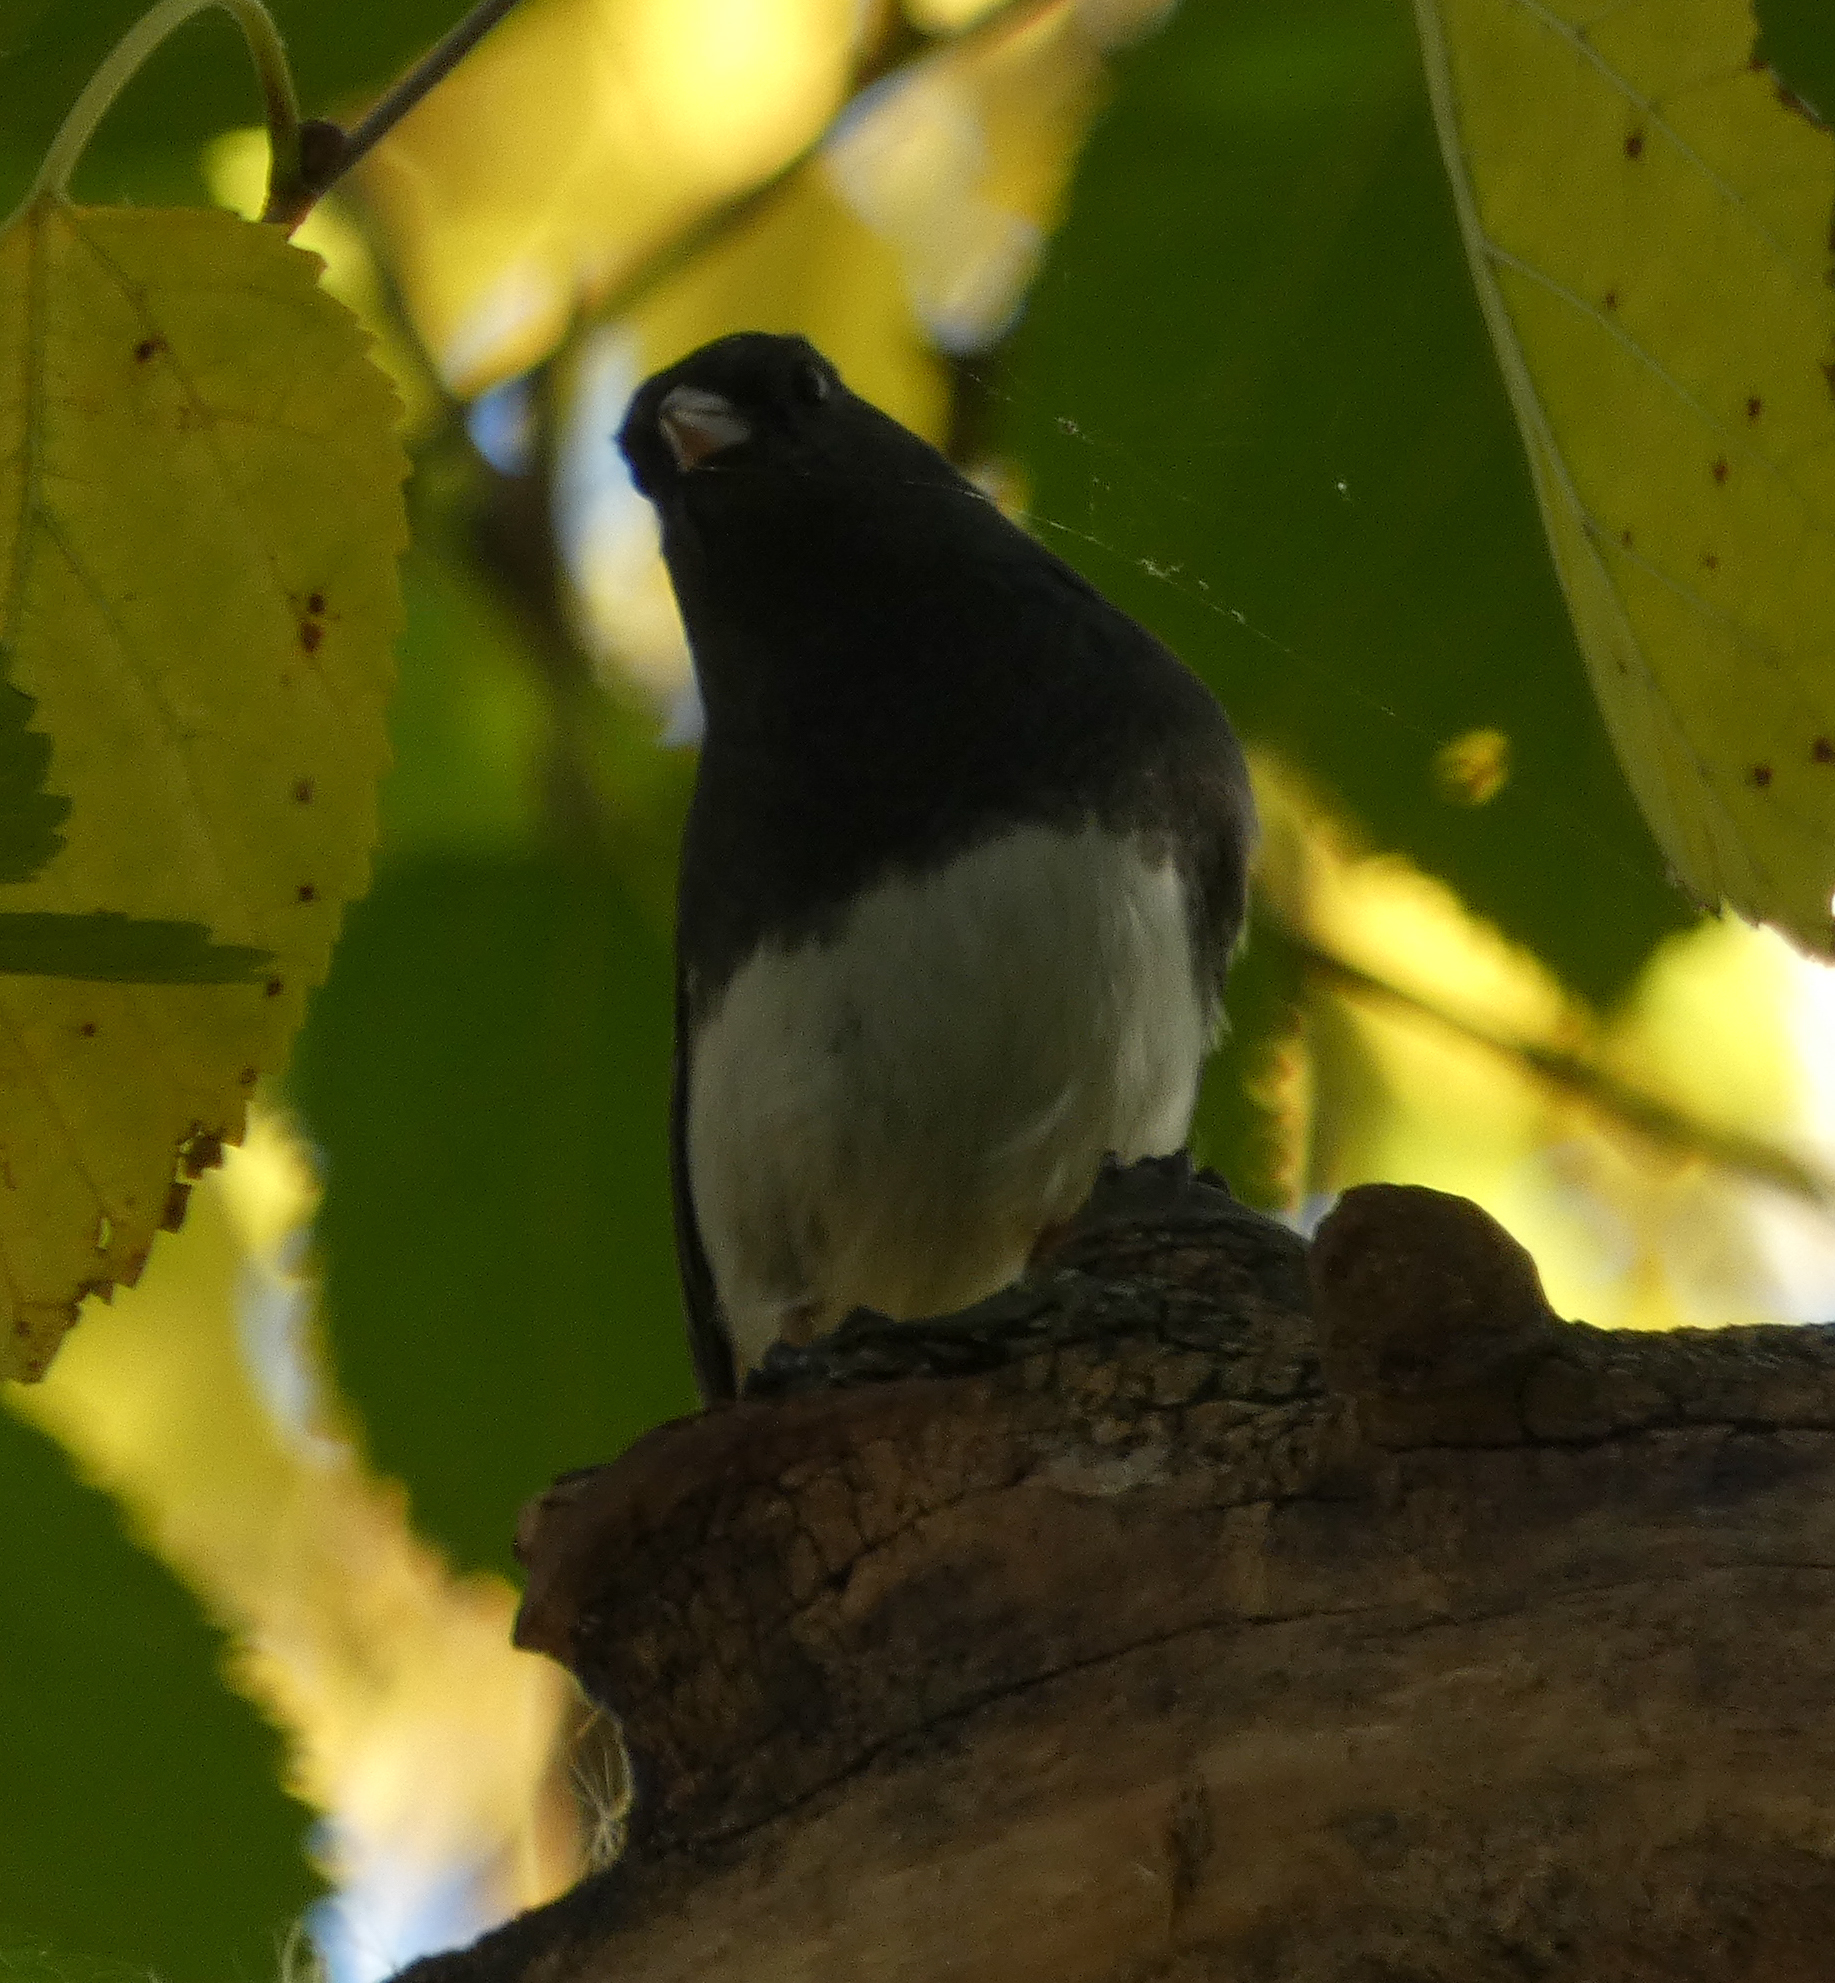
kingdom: Animalia
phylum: Chordata
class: Aves
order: Passeriformes
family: Passerellidae
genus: Junco
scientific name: Junco hyemalis
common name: Dark-eyed junco
